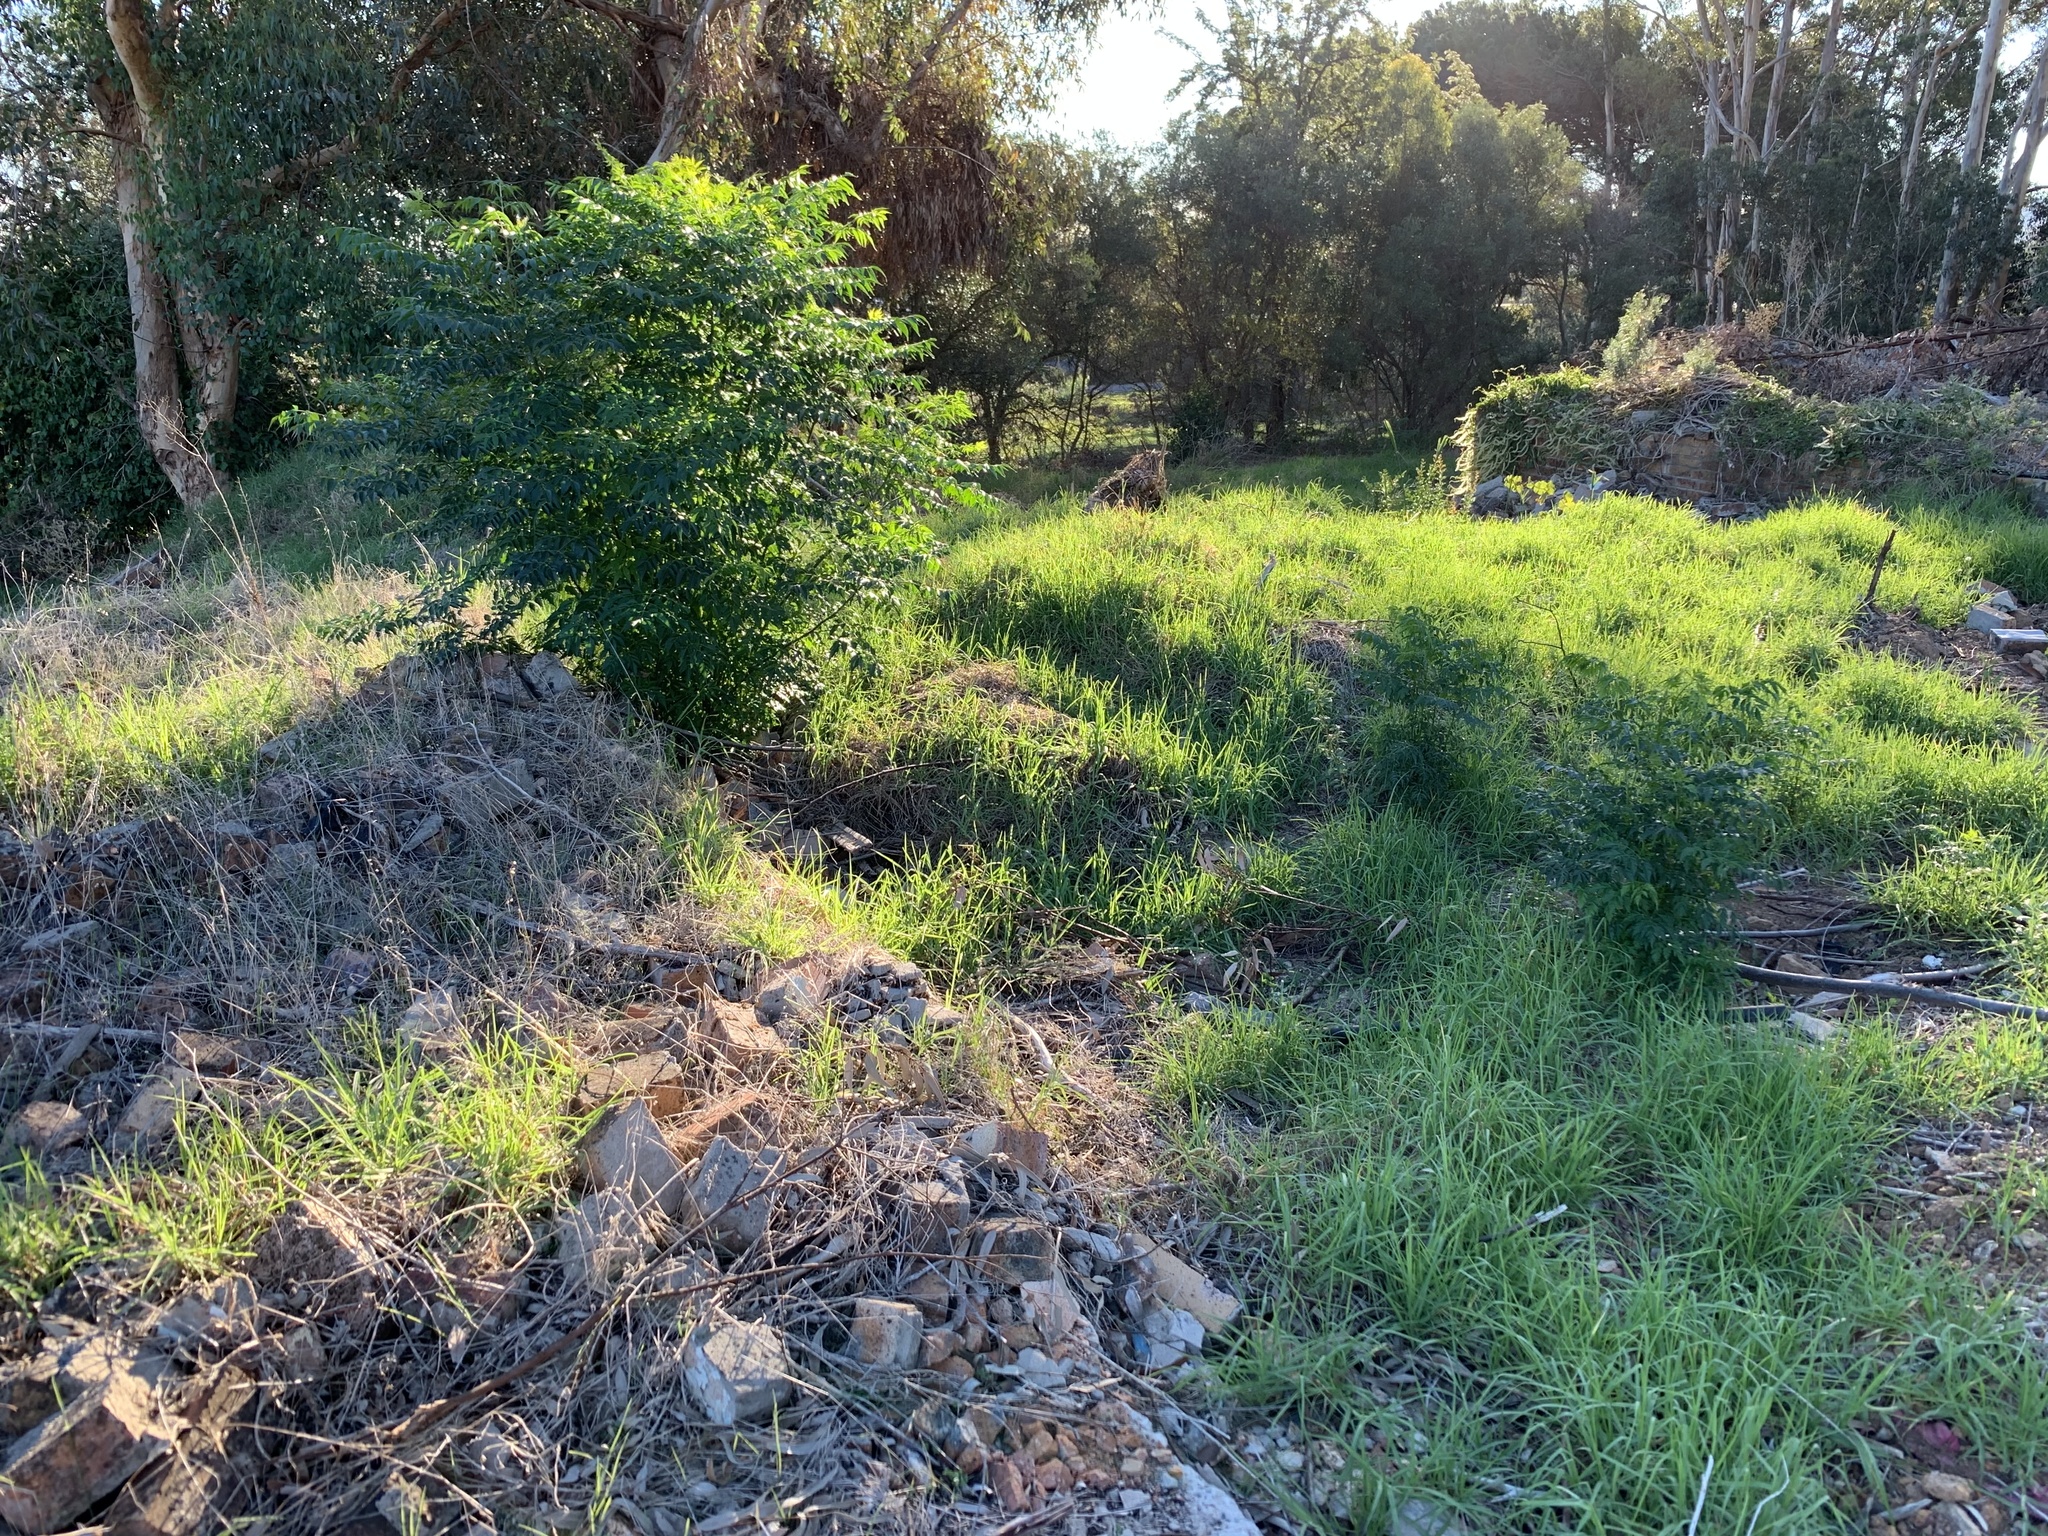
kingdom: Plantae
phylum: Tracheophyta
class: Magnoliopsida
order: Sapindales
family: Meliaceae
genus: Melia
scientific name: Melia azedarach
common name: Chinaberrytree
